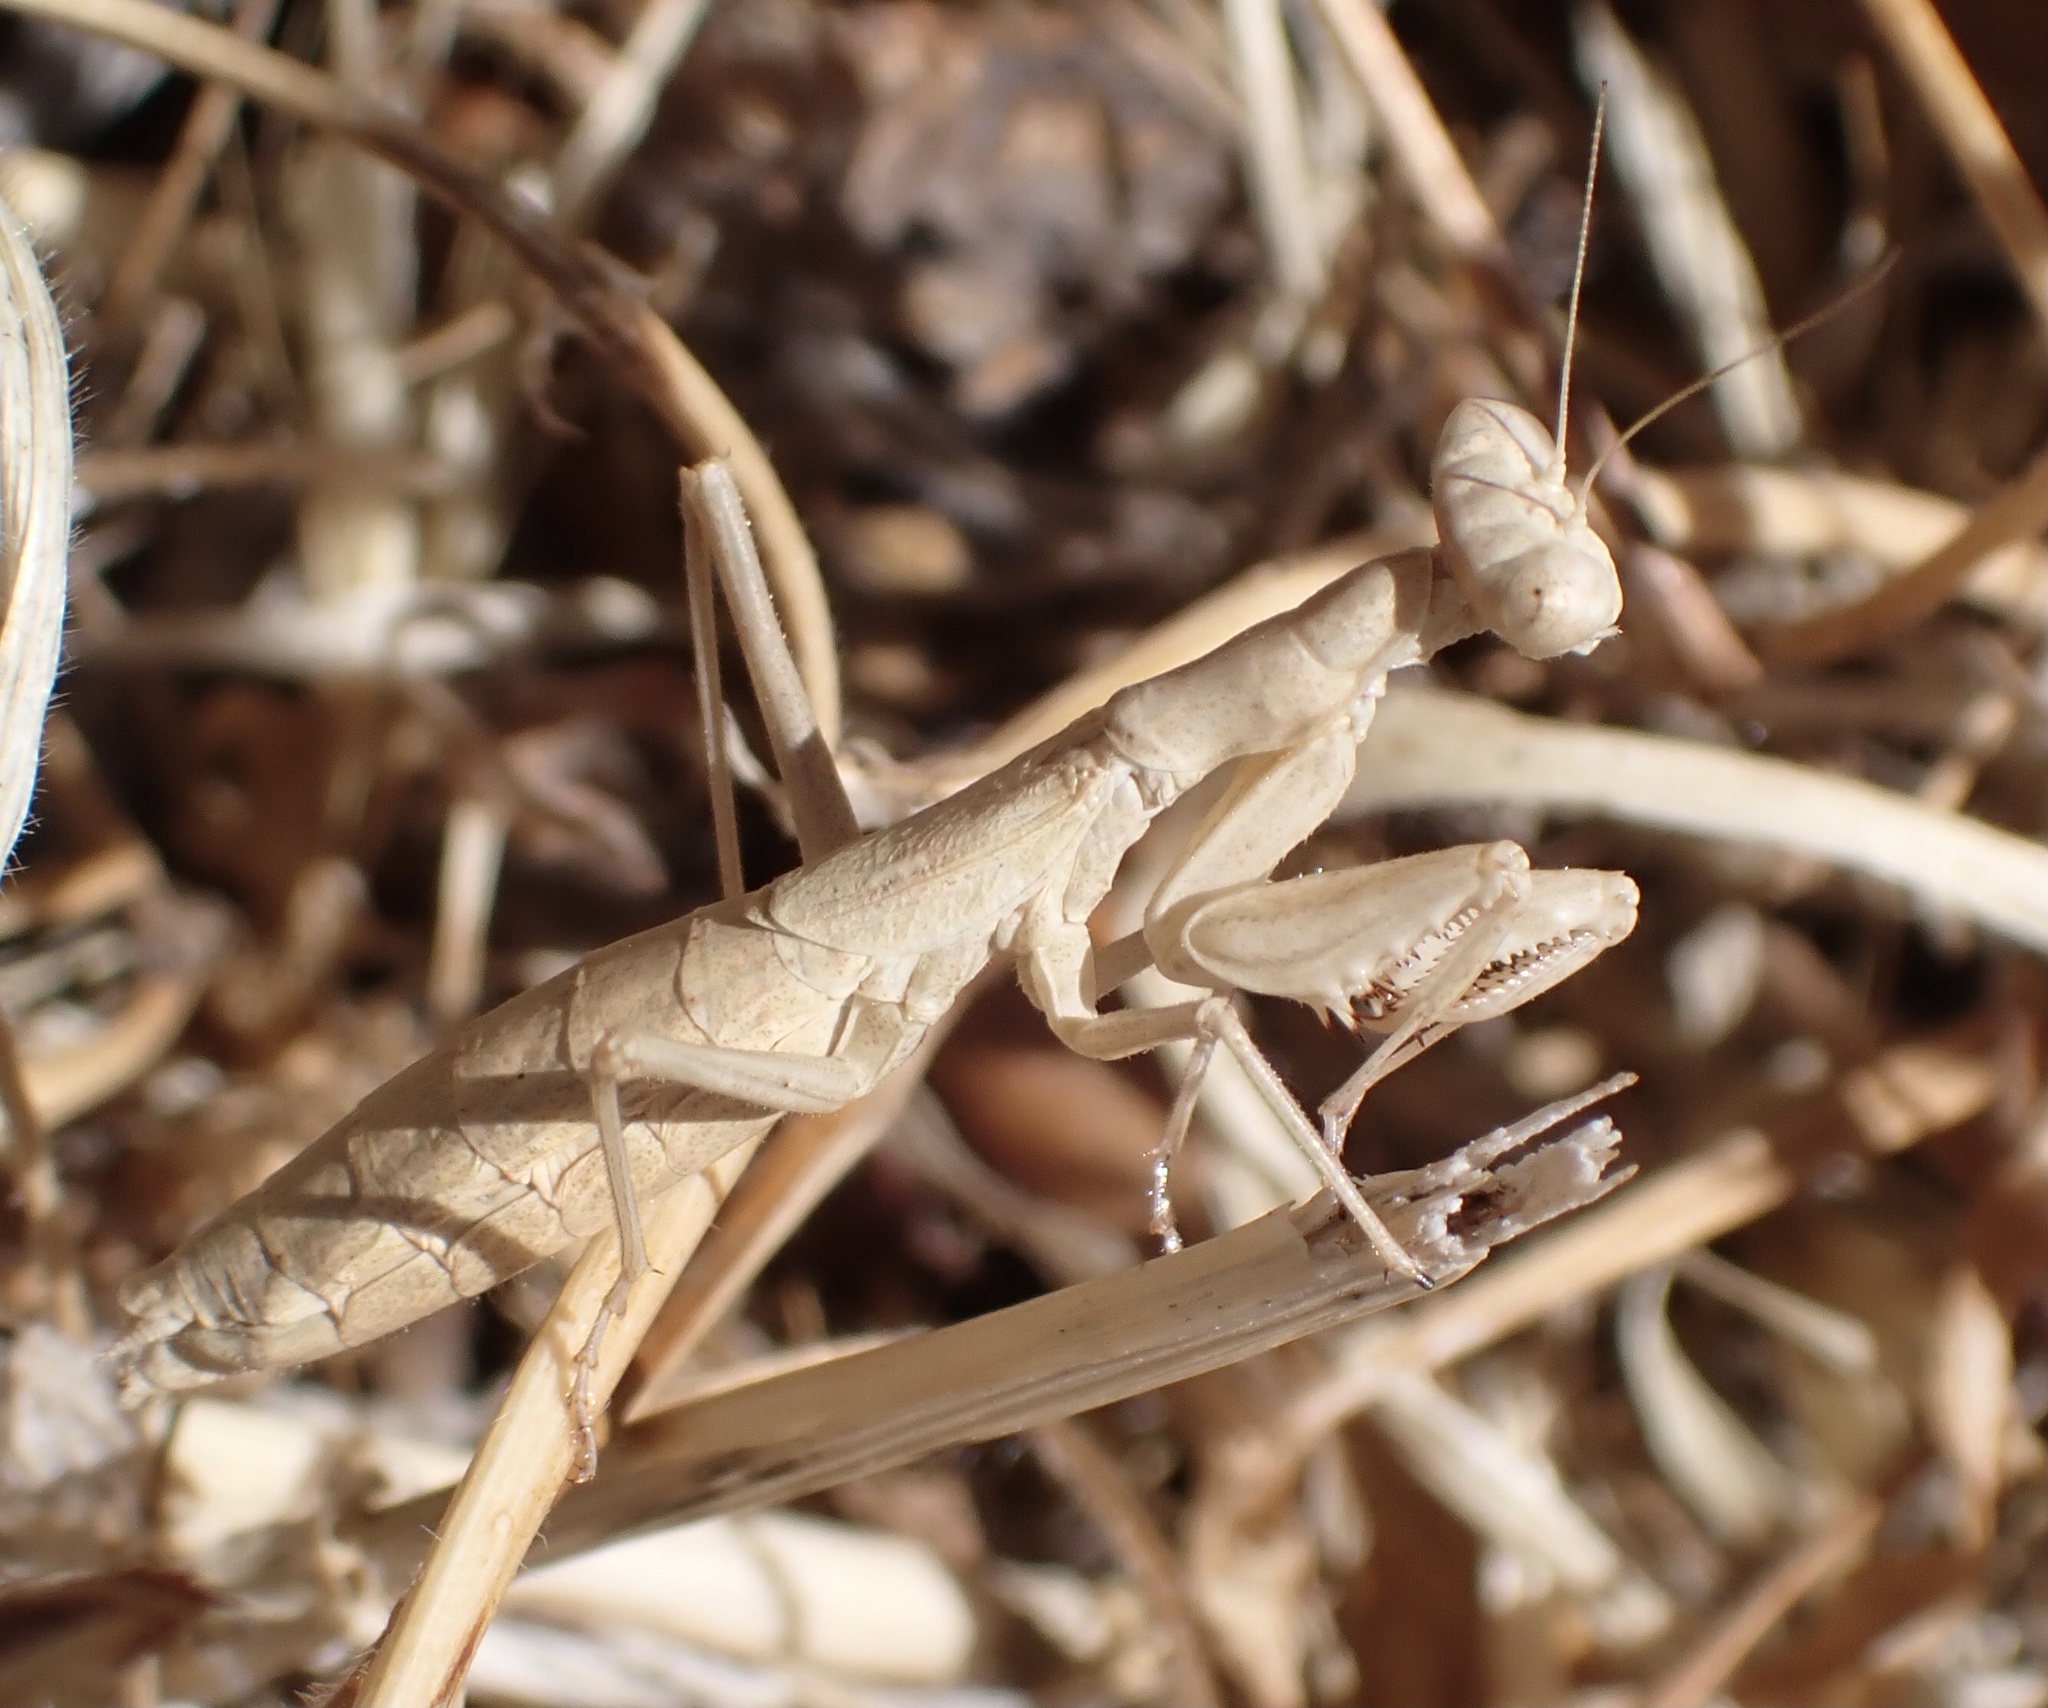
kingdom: Animalia
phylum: Arthropoda
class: Insecta
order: Mantodea
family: Amelidae
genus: Ameles
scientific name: Ameles decolor
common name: Dwarf mantis
